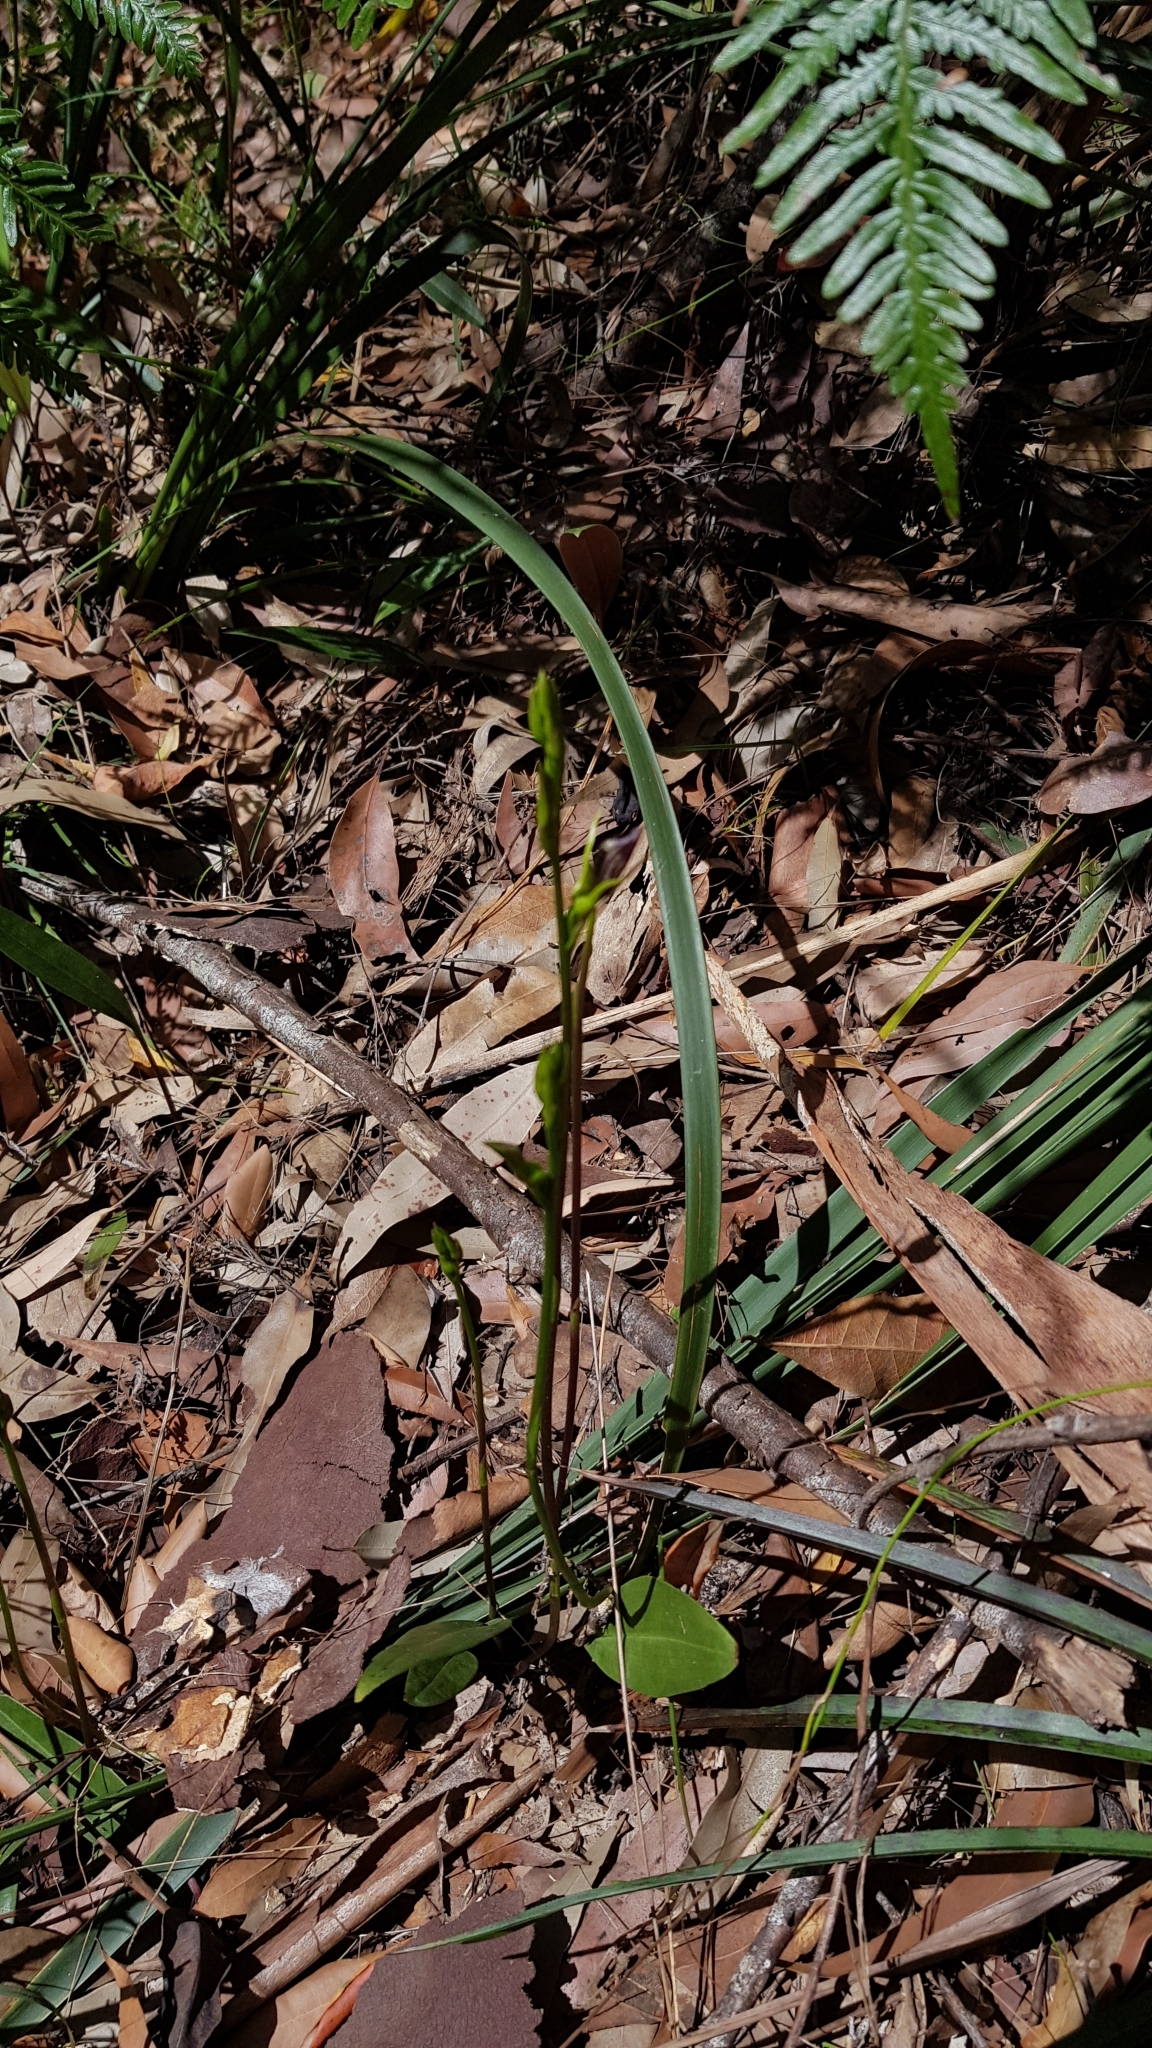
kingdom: Plantae
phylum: Tracheophyta
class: Liliopsida
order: Asparagales
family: Orchidaceae
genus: Cryptostylis
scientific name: Cryptostylis erecta
